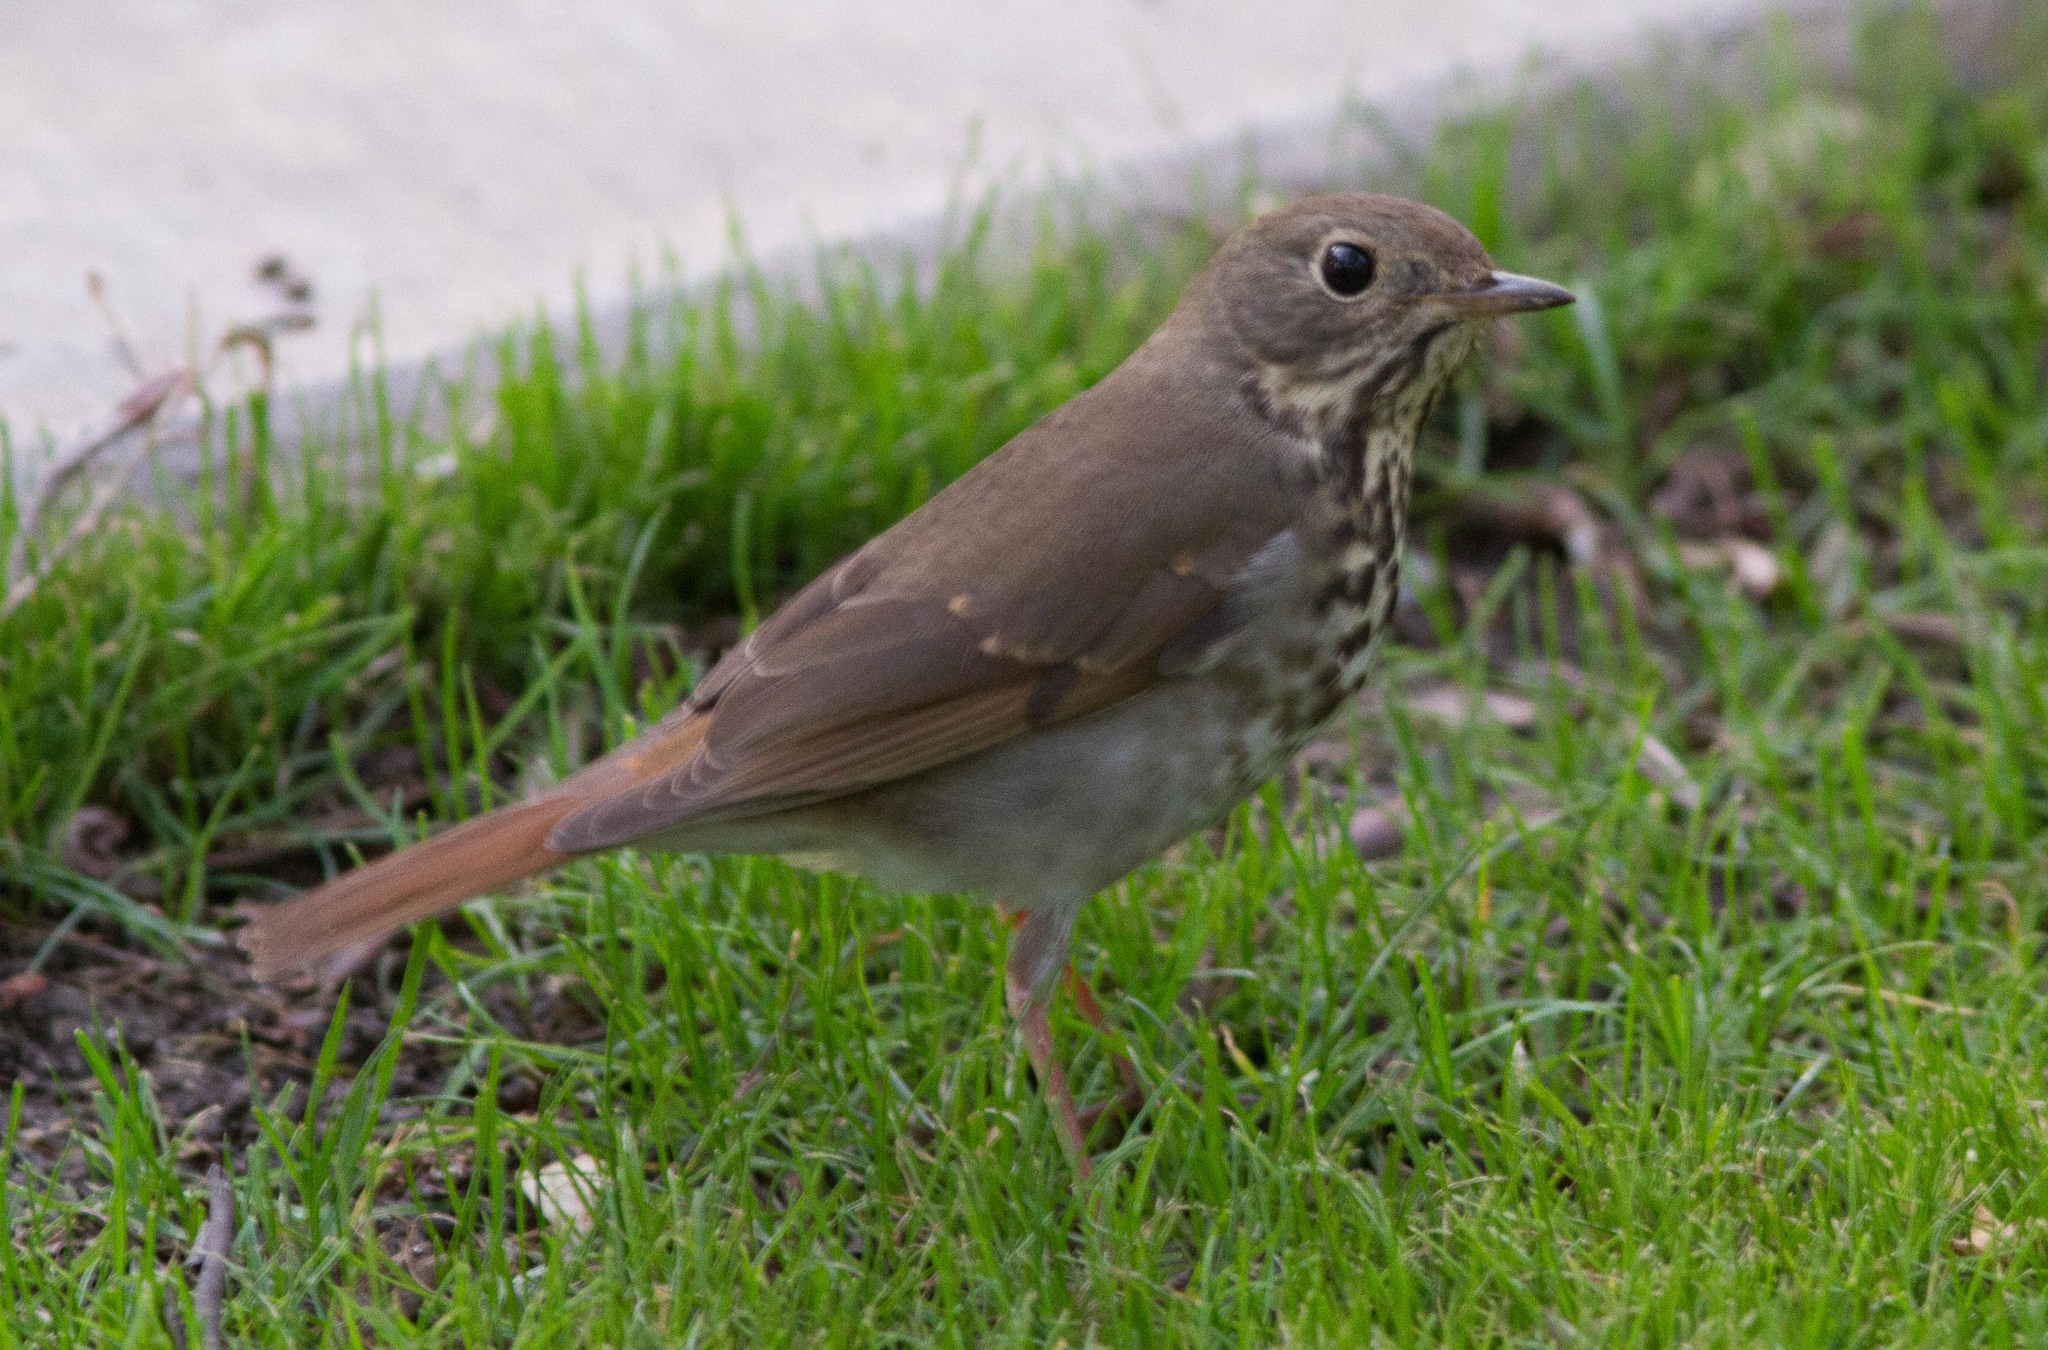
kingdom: Animalia
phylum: Chordata
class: Aves
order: Passeriformes
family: Turdidae
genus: Catharus
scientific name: Catharus guttatus
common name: Hermit thrush
